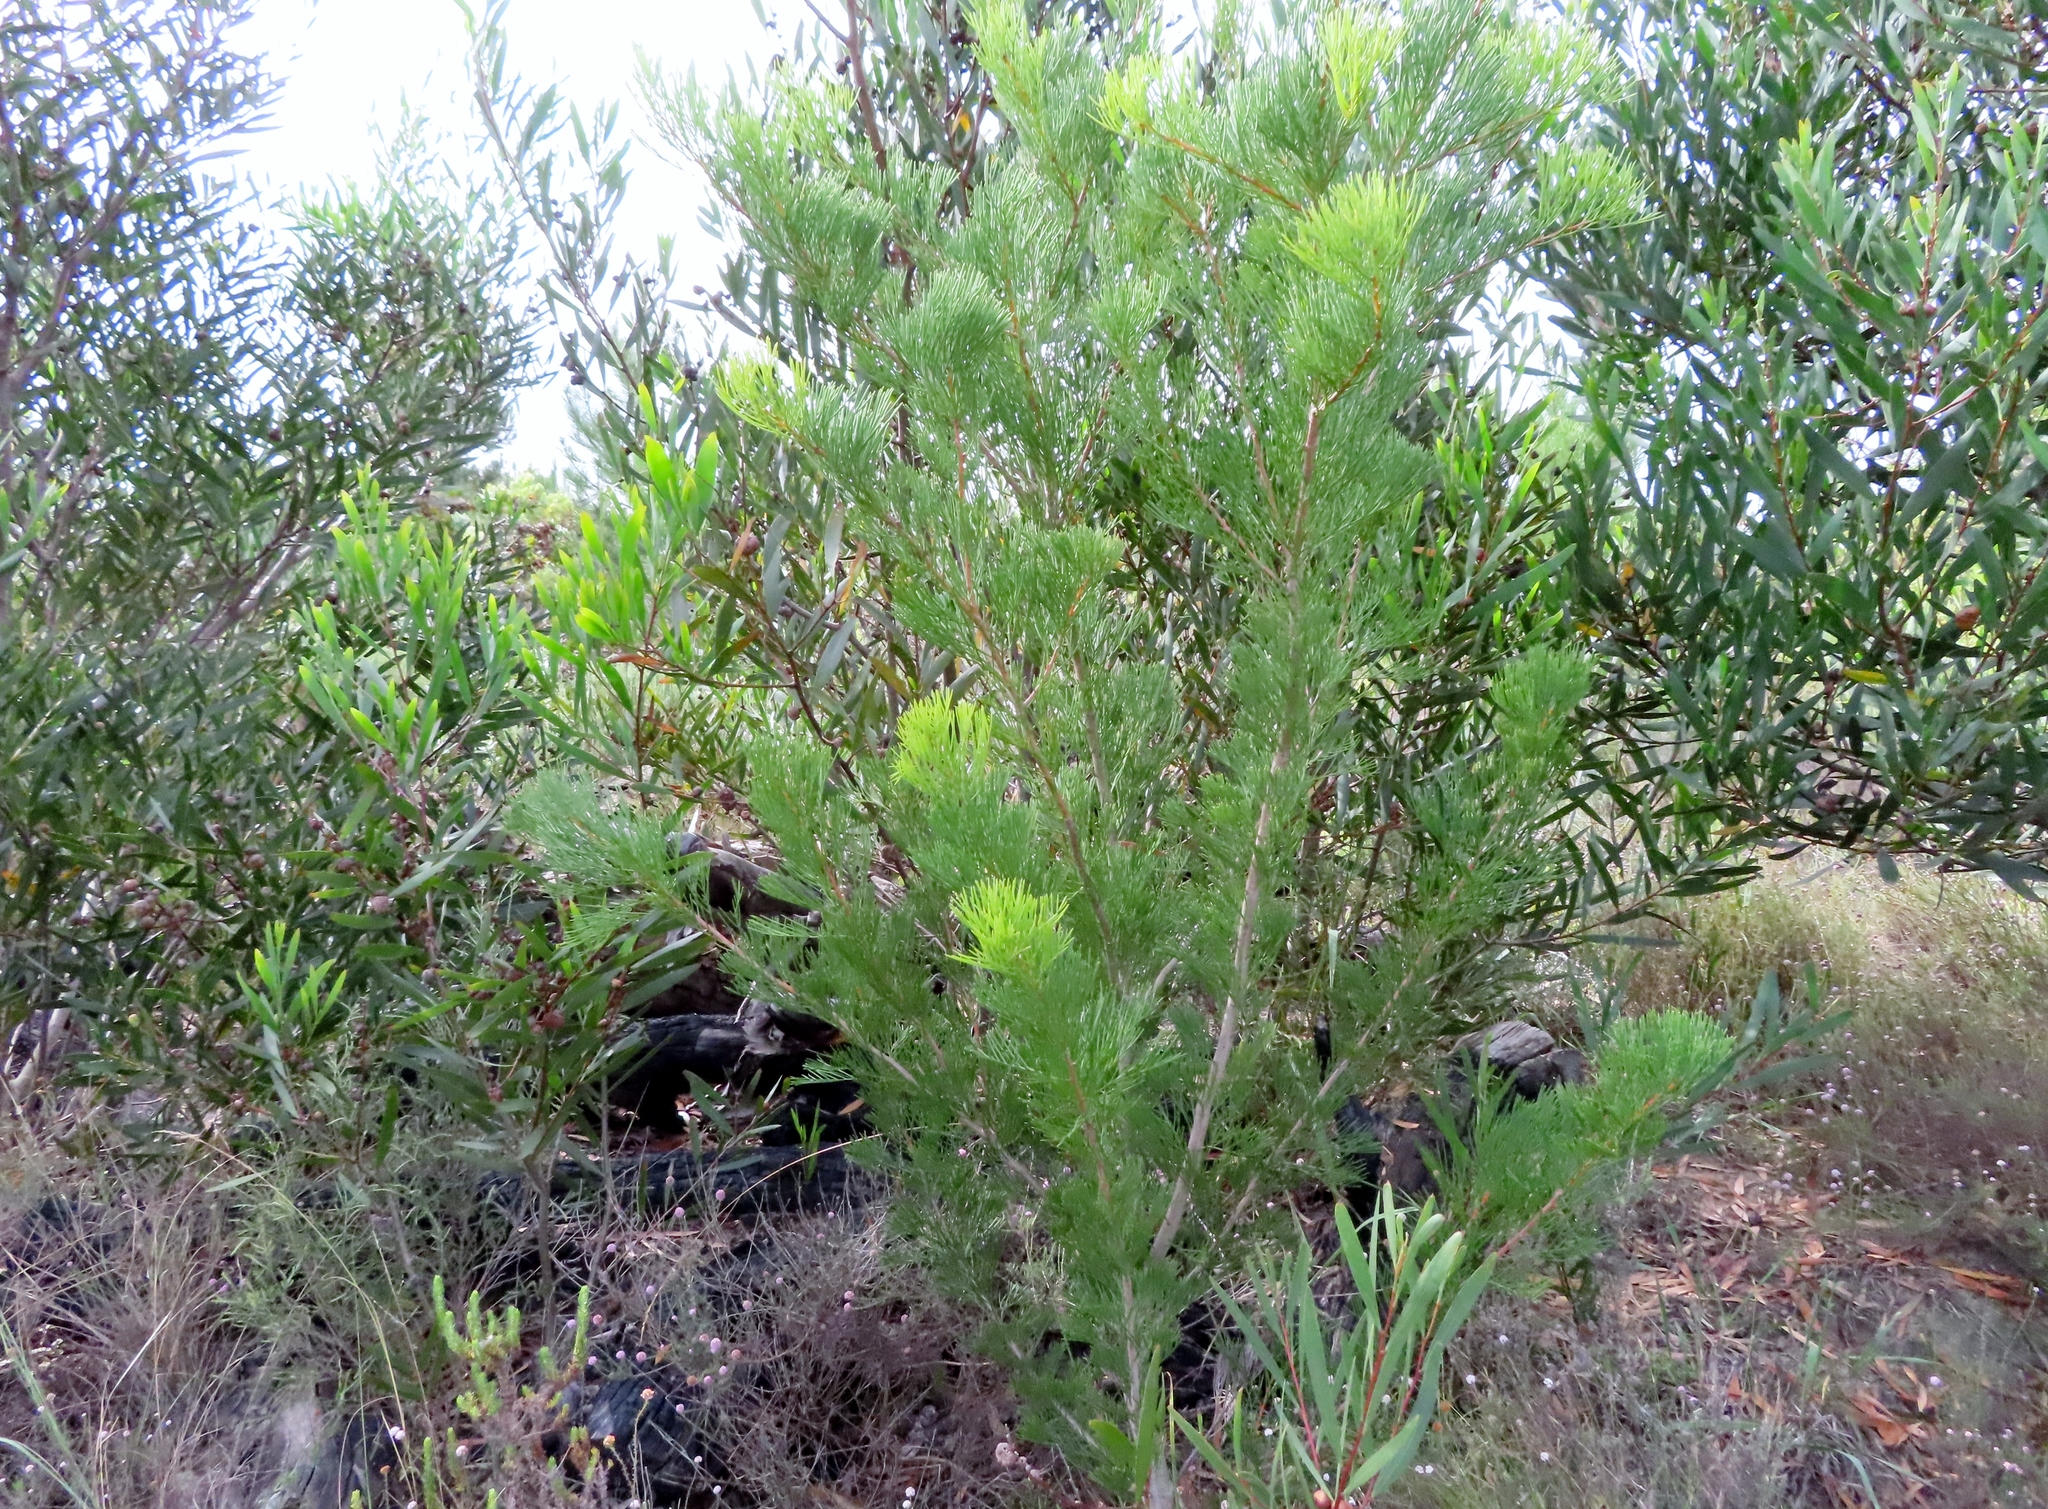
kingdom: Plantae
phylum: Tracheophyta
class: Magnoliopsida
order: Proteales
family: Proteaceae
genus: Hakea
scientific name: Hakea drupacea
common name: Sweet hakea
